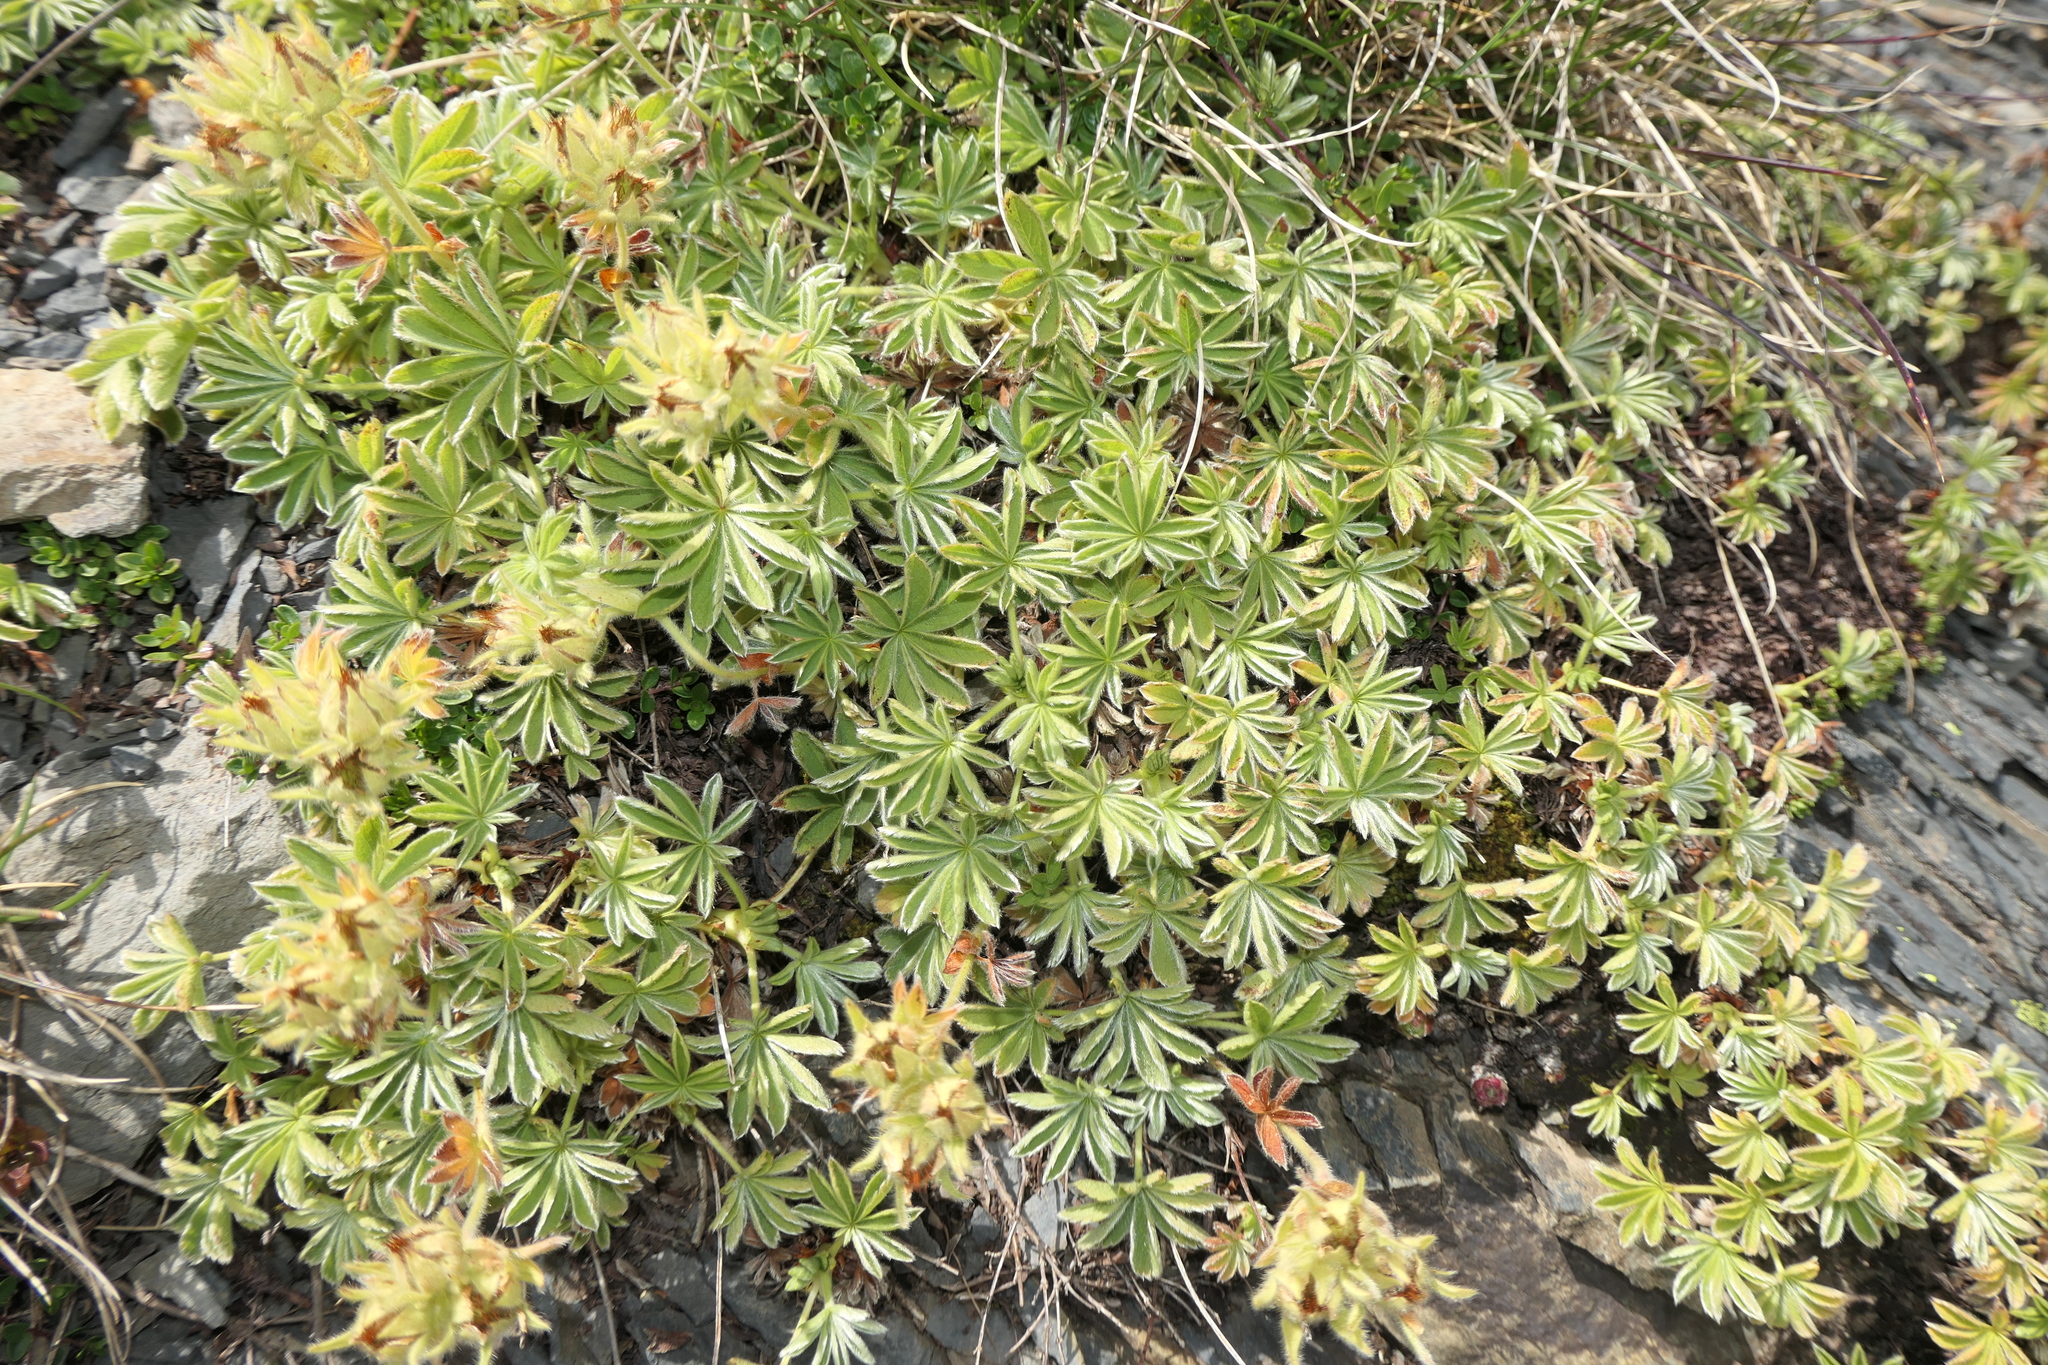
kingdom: Plantae
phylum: Tracheophyta
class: Magnoliopsida
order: Rosales
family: Rosaceae
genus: Potentilla
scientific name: Potentilla nivalis
